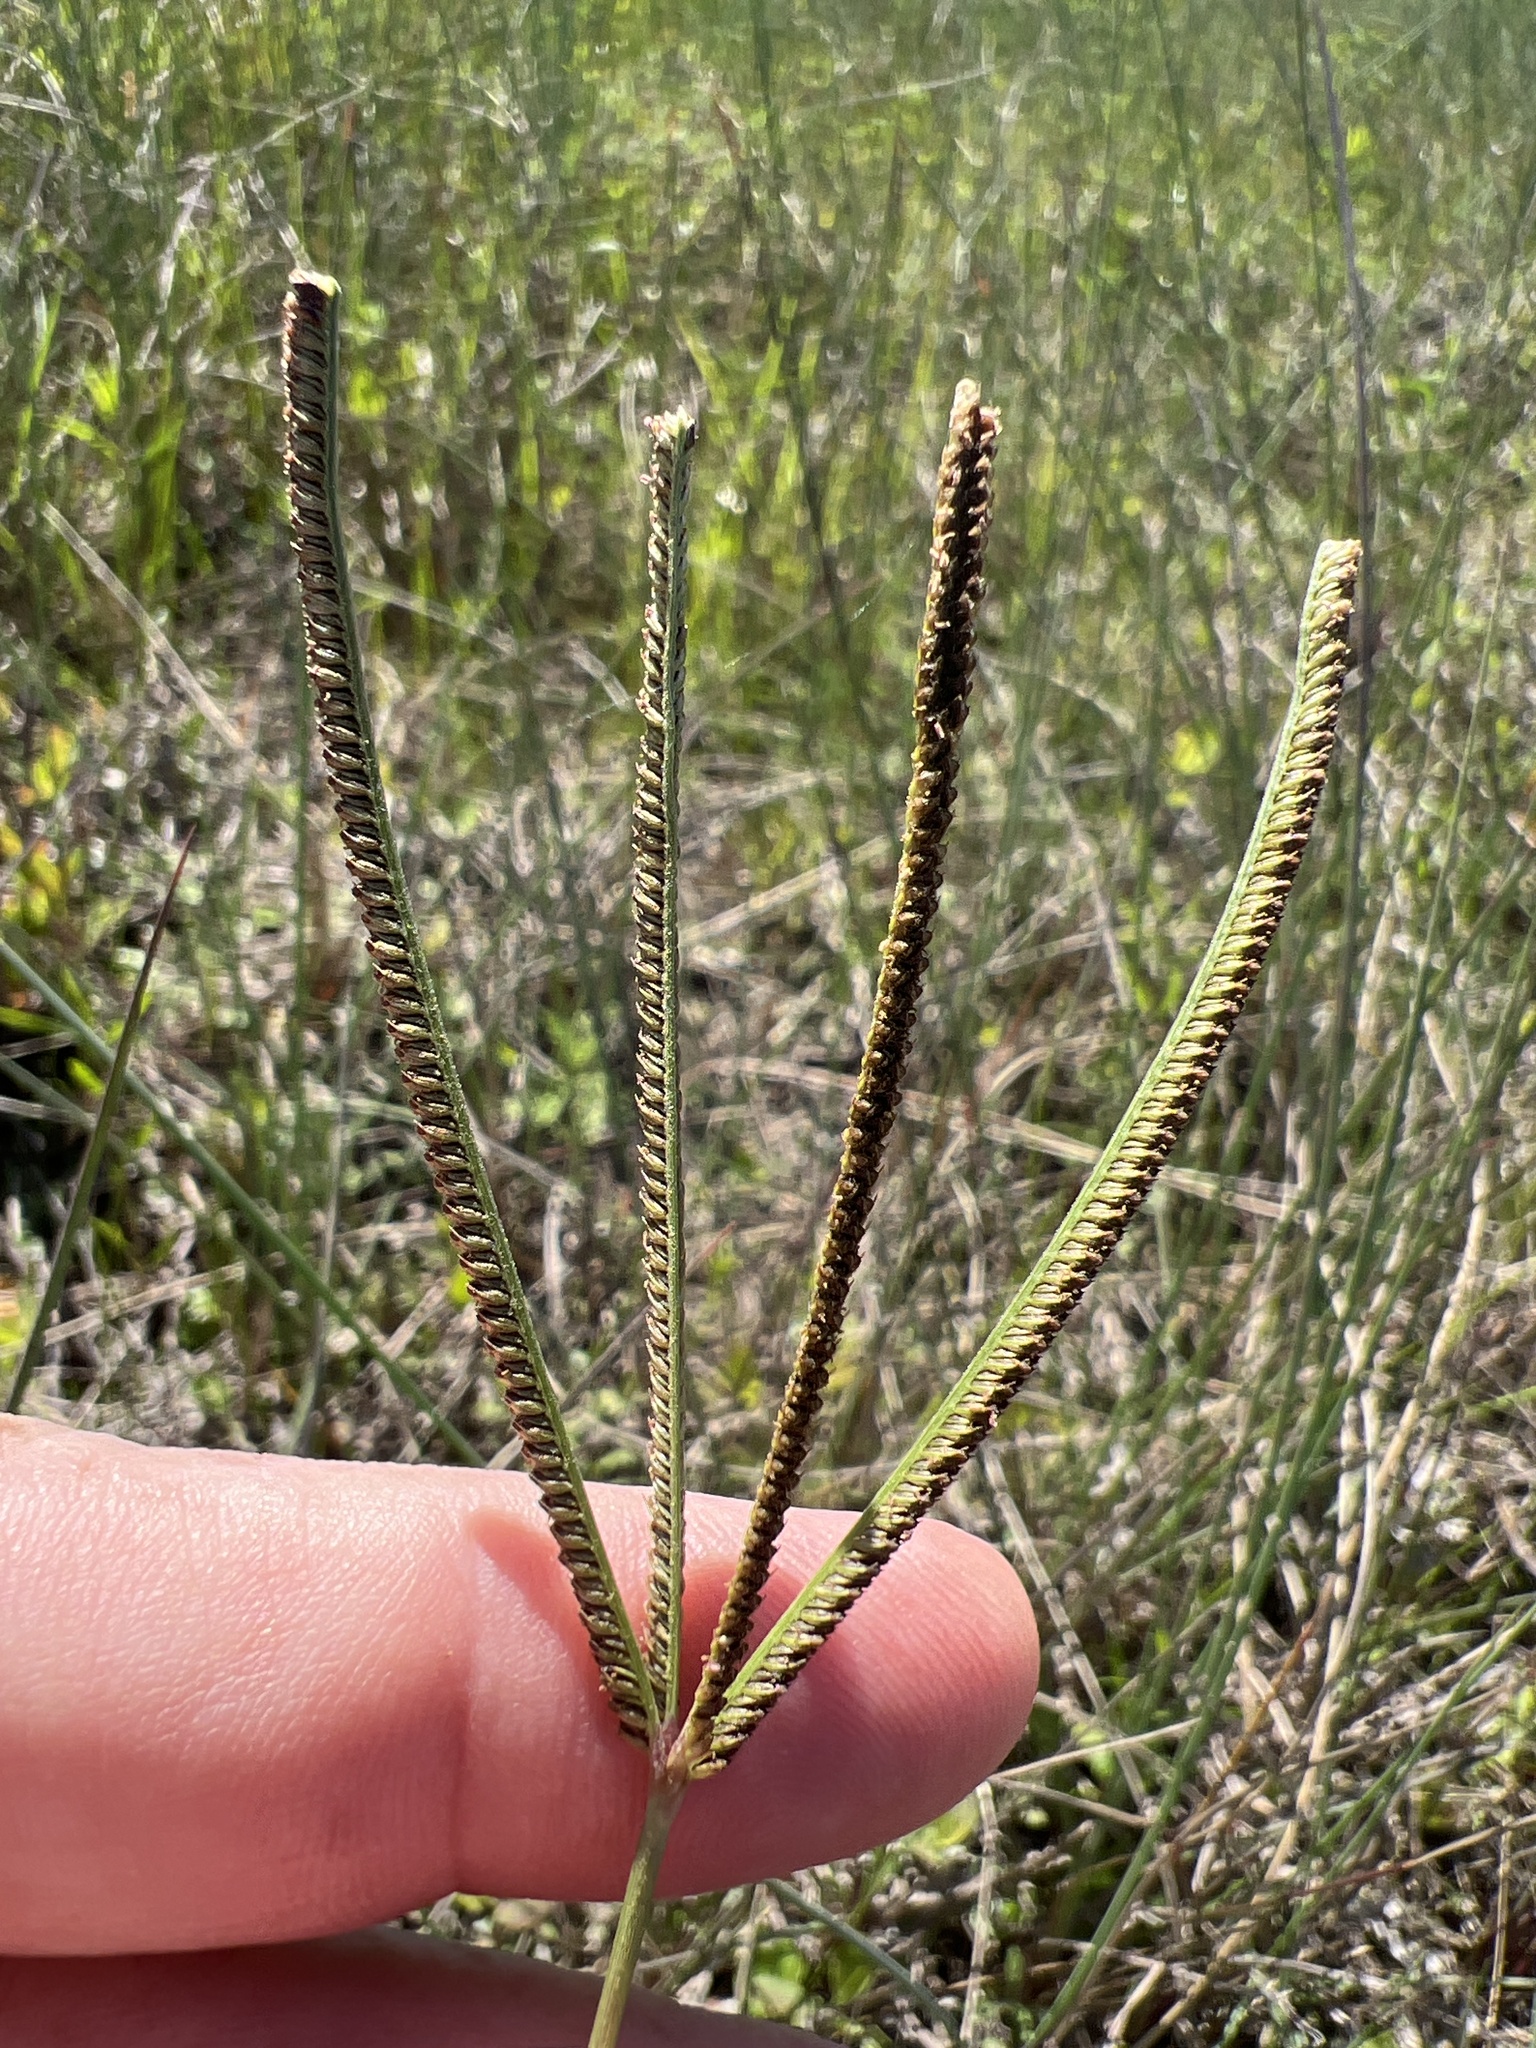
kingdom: Plantae
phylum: Tracheophyta
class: Liliopsida
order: Poales
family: Poaceae
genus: Eustachys
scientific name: Eustachys petraea
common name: Pinewoods fingergrass
